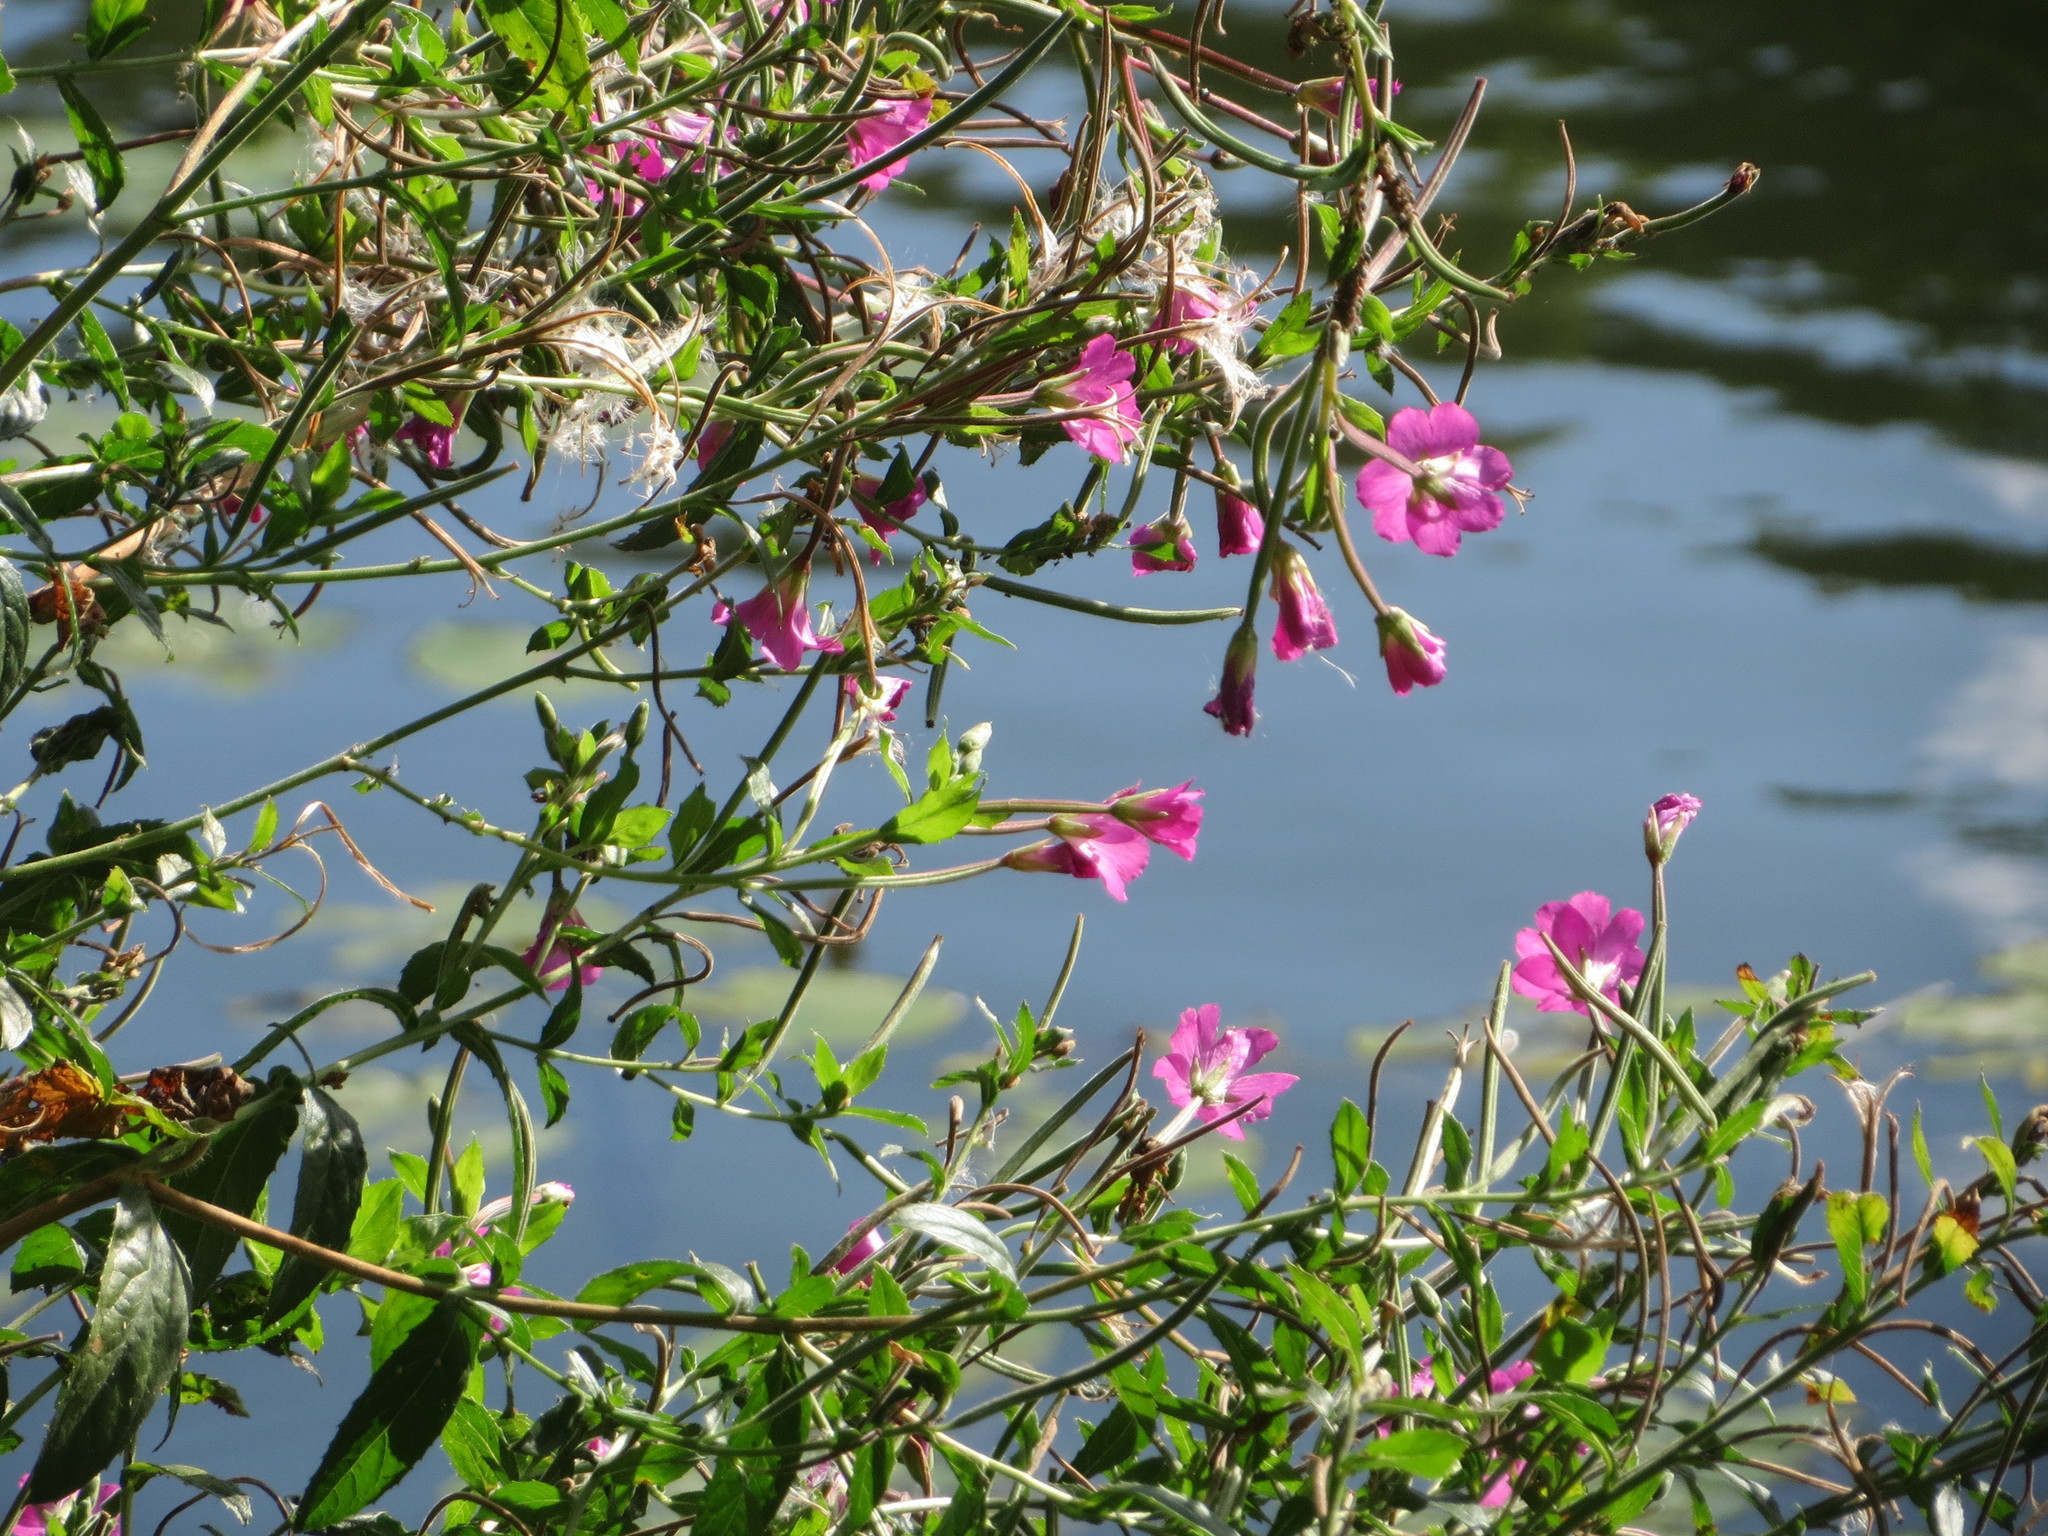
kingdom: Plantae
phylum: Tracheophyta
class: Magnoliopsida
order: Myrtales
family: Onagraceae
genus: Epilobium
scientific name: Epilobium hirsutum
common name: Great willowherb
